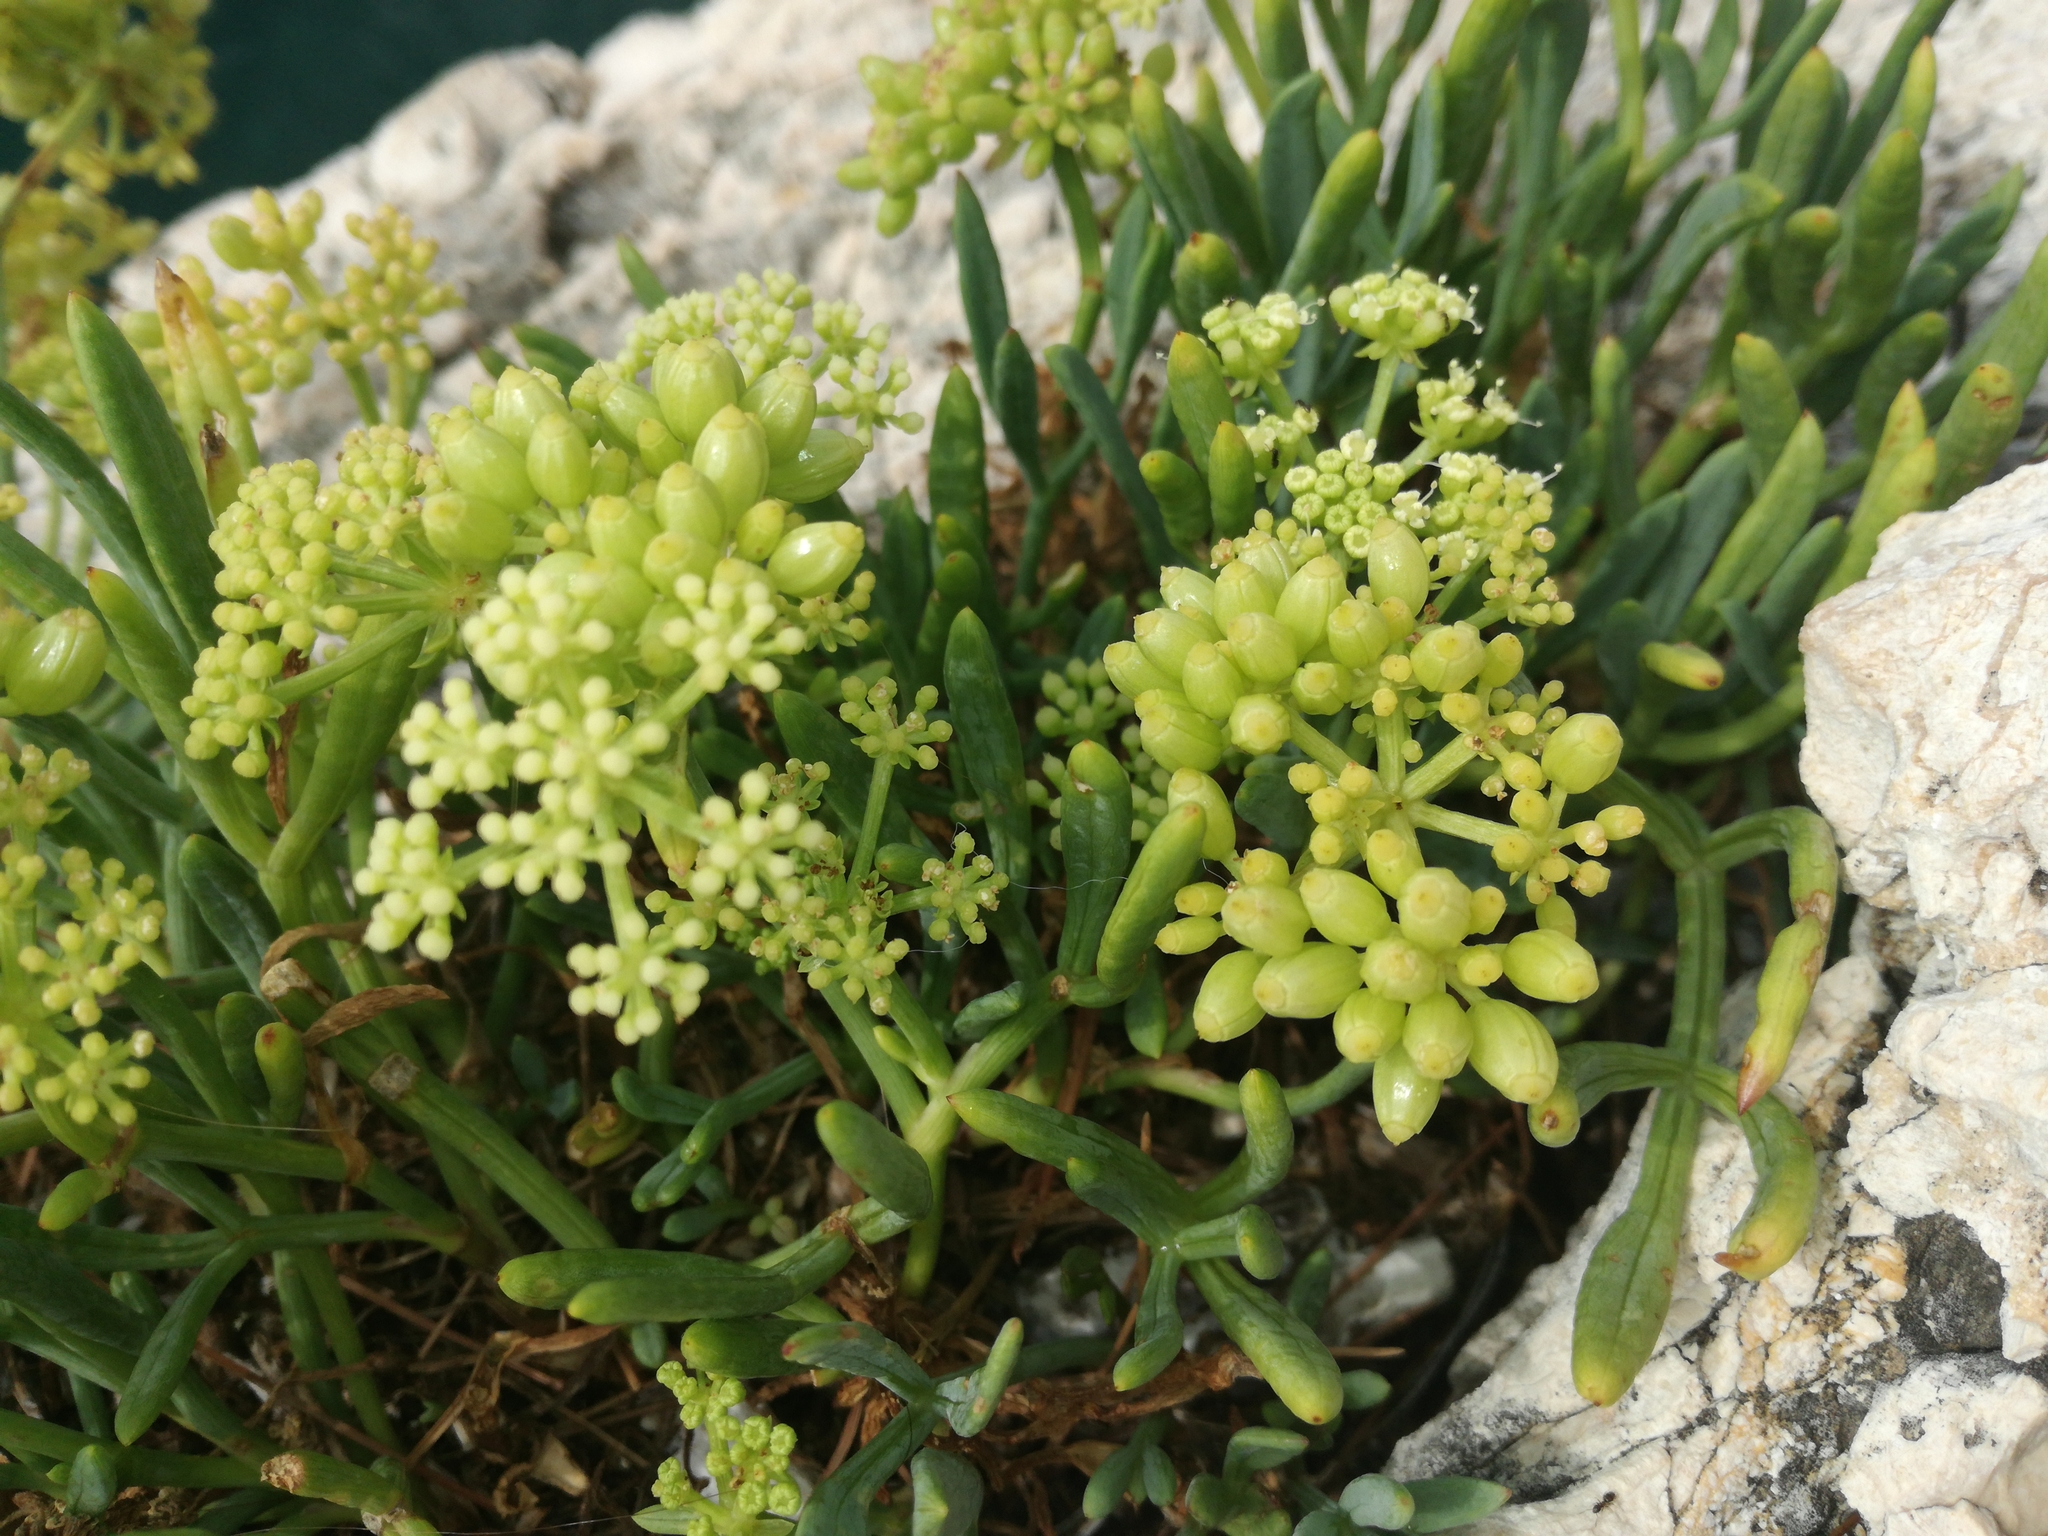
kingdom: Plantae
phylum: Tracheophyta
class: Magnoliopsida
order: Apiales
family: Apiaceae
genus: Crithmum
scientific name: Crithmum maritimum
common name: Rock samphire
